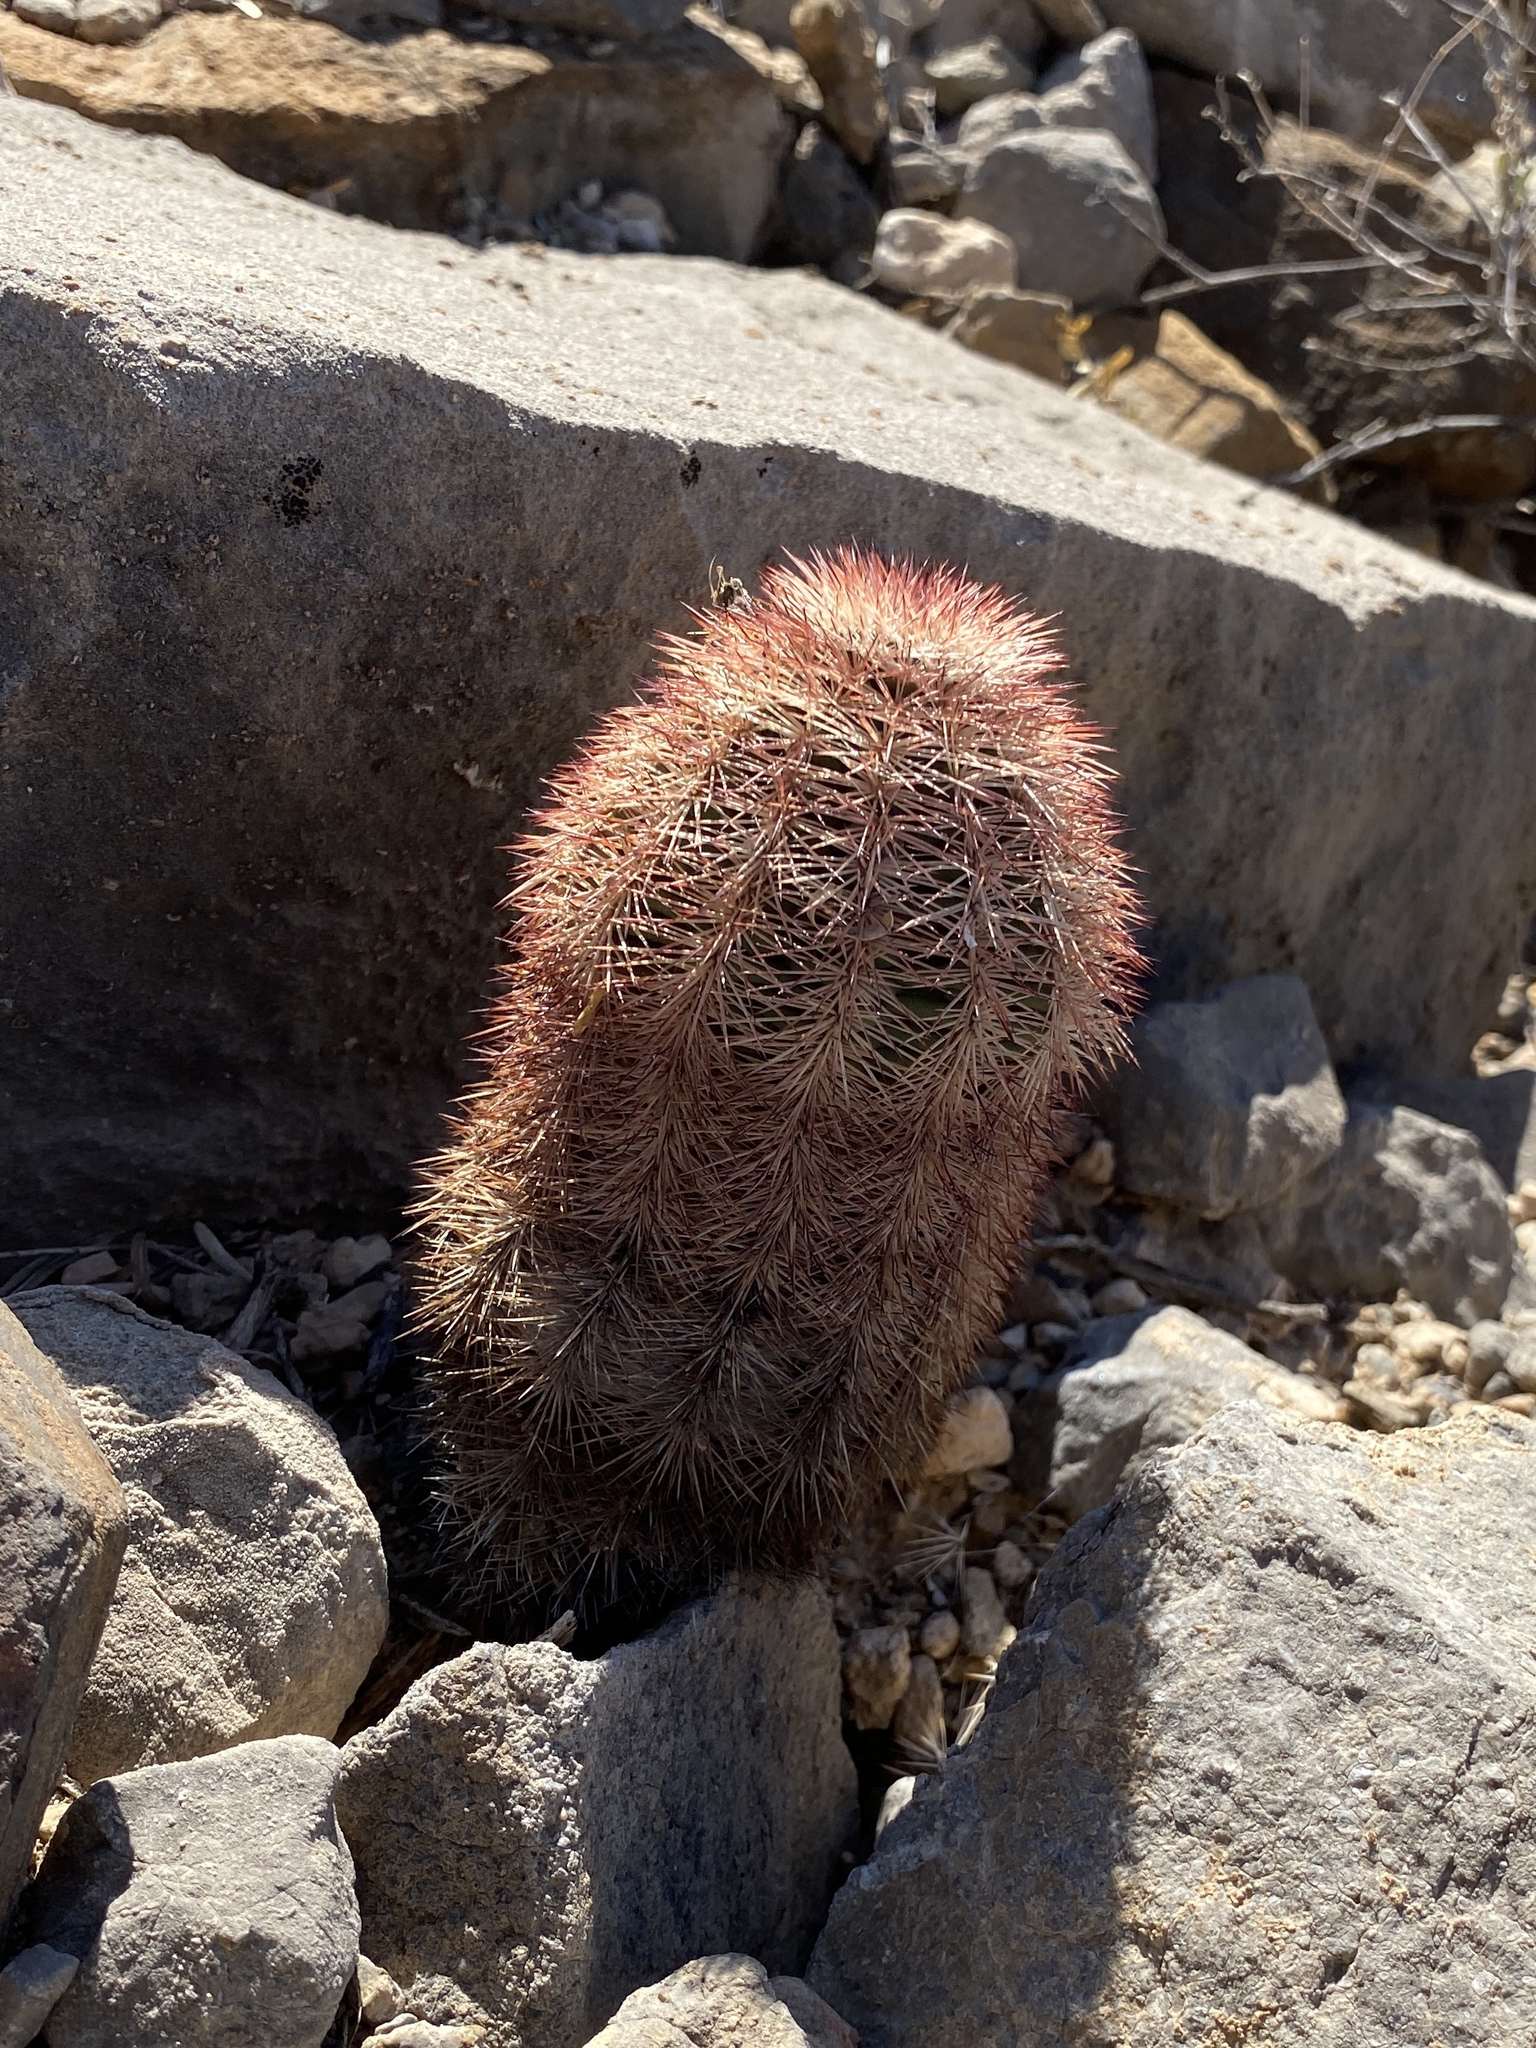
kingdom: Plantae
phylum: Tracheophyta
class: Magnoliopsida
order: Caryophyllales
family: Cactaceae
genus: Echinocereus
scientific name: Echinocereus dasyacanthus
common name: Spiny hedgehog cactus
